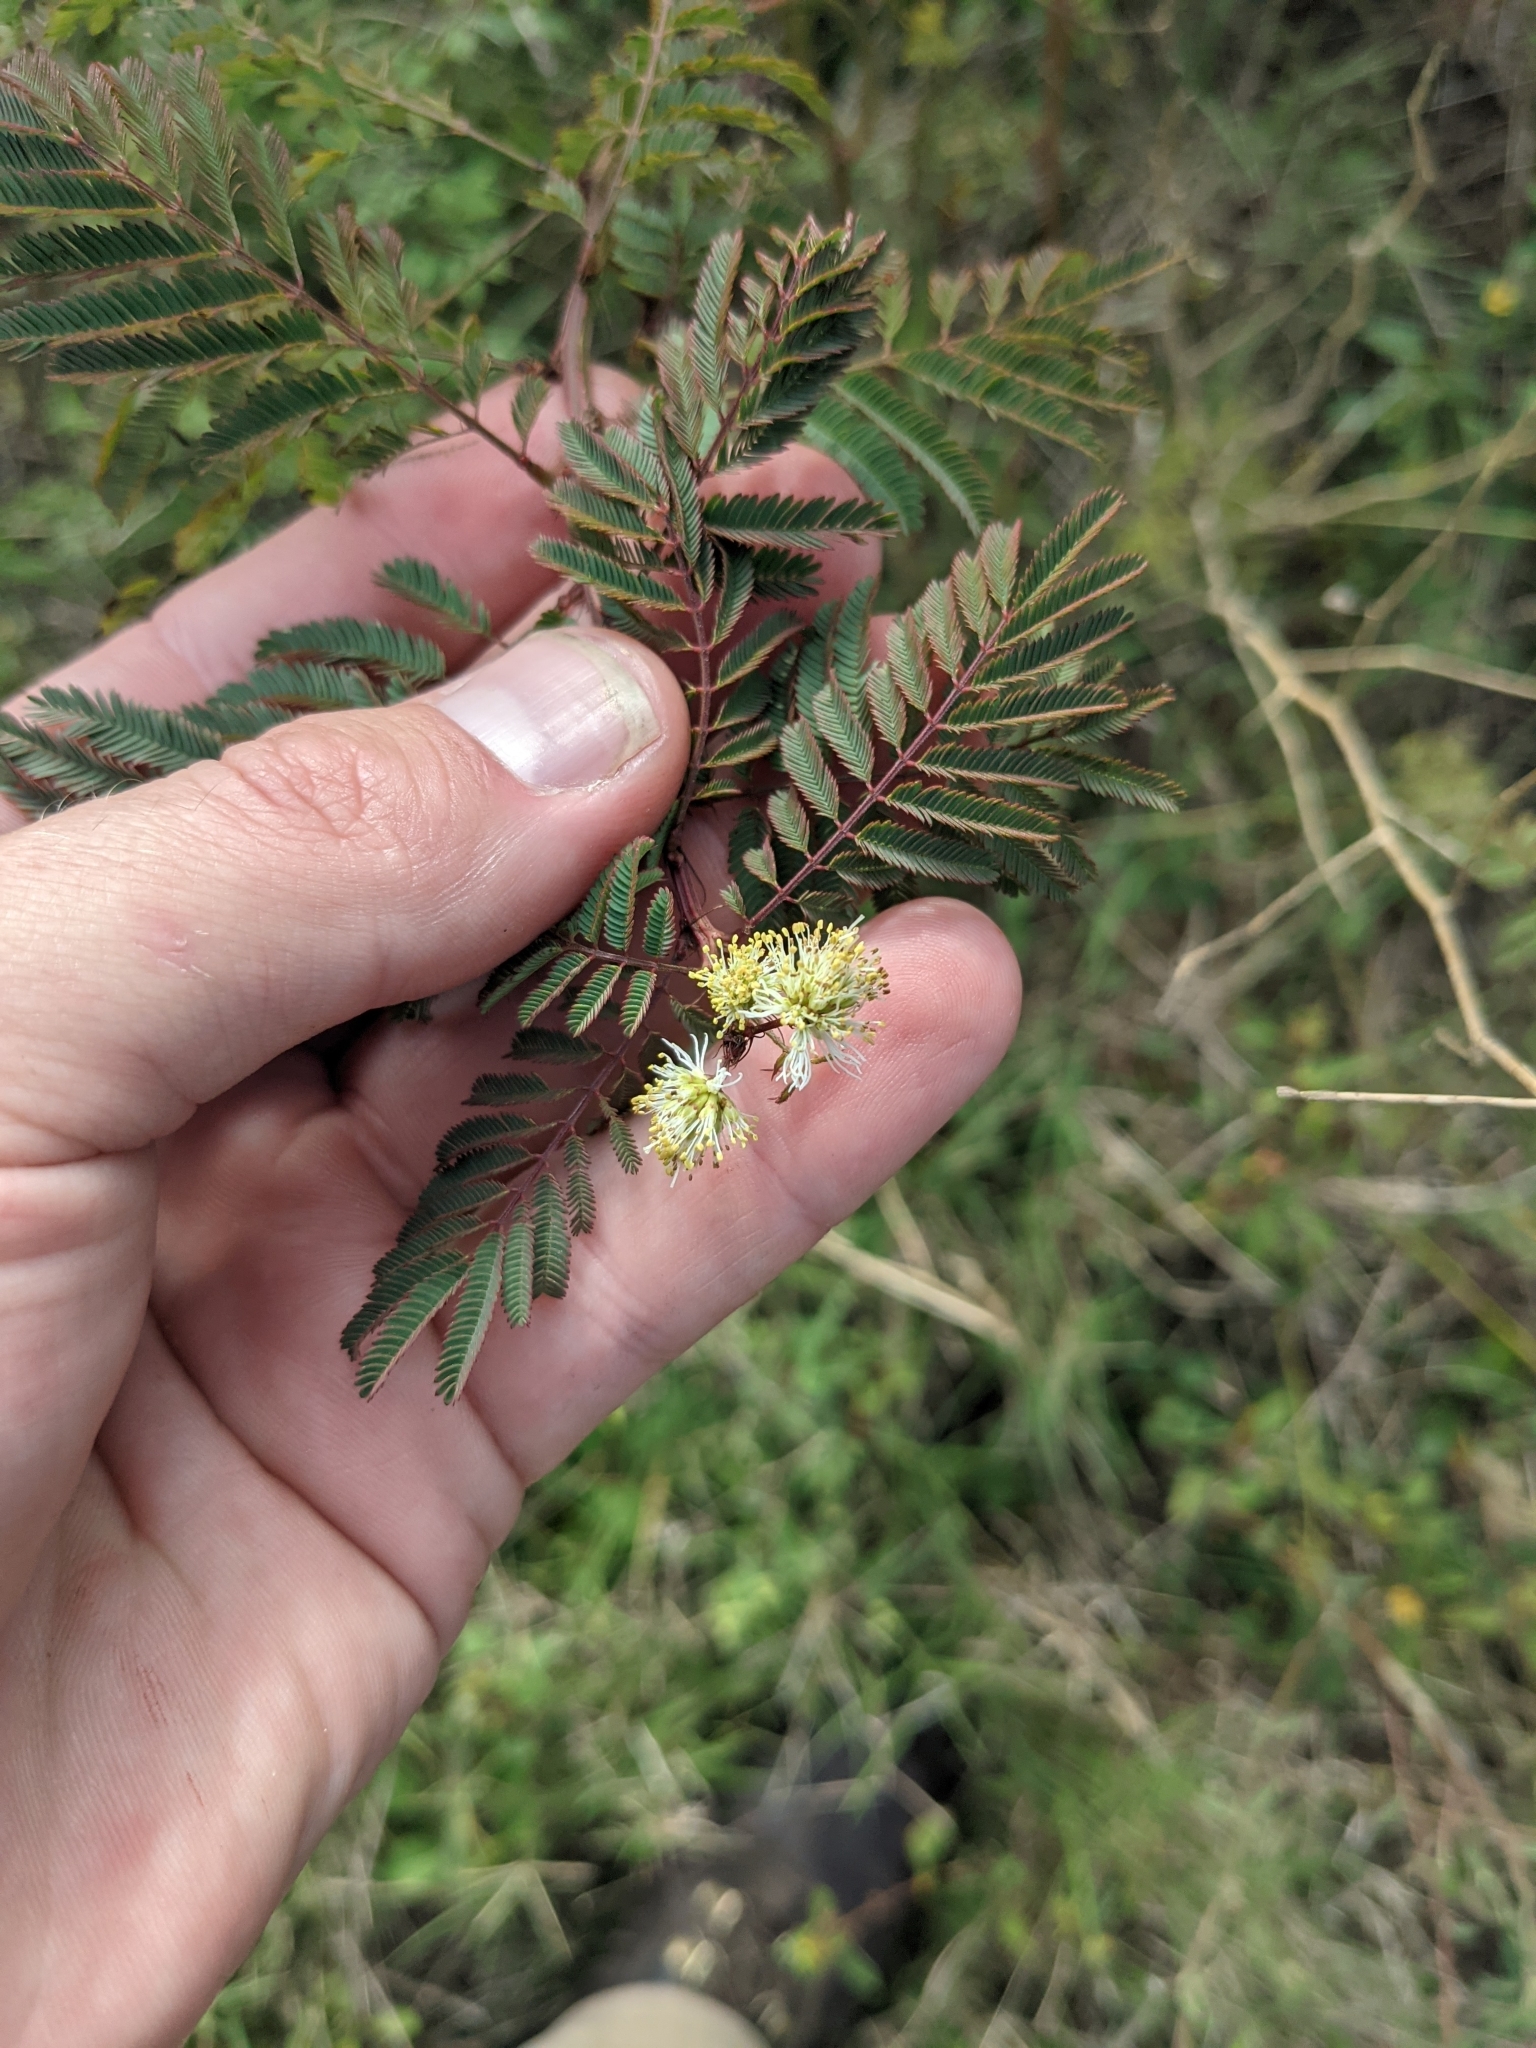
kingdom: Plantae
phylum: Tracheophyta
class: Magnoliopsida
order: Fabales
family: Fabaceae
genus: Desmanthus
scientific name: Desmanthus bicornutus
